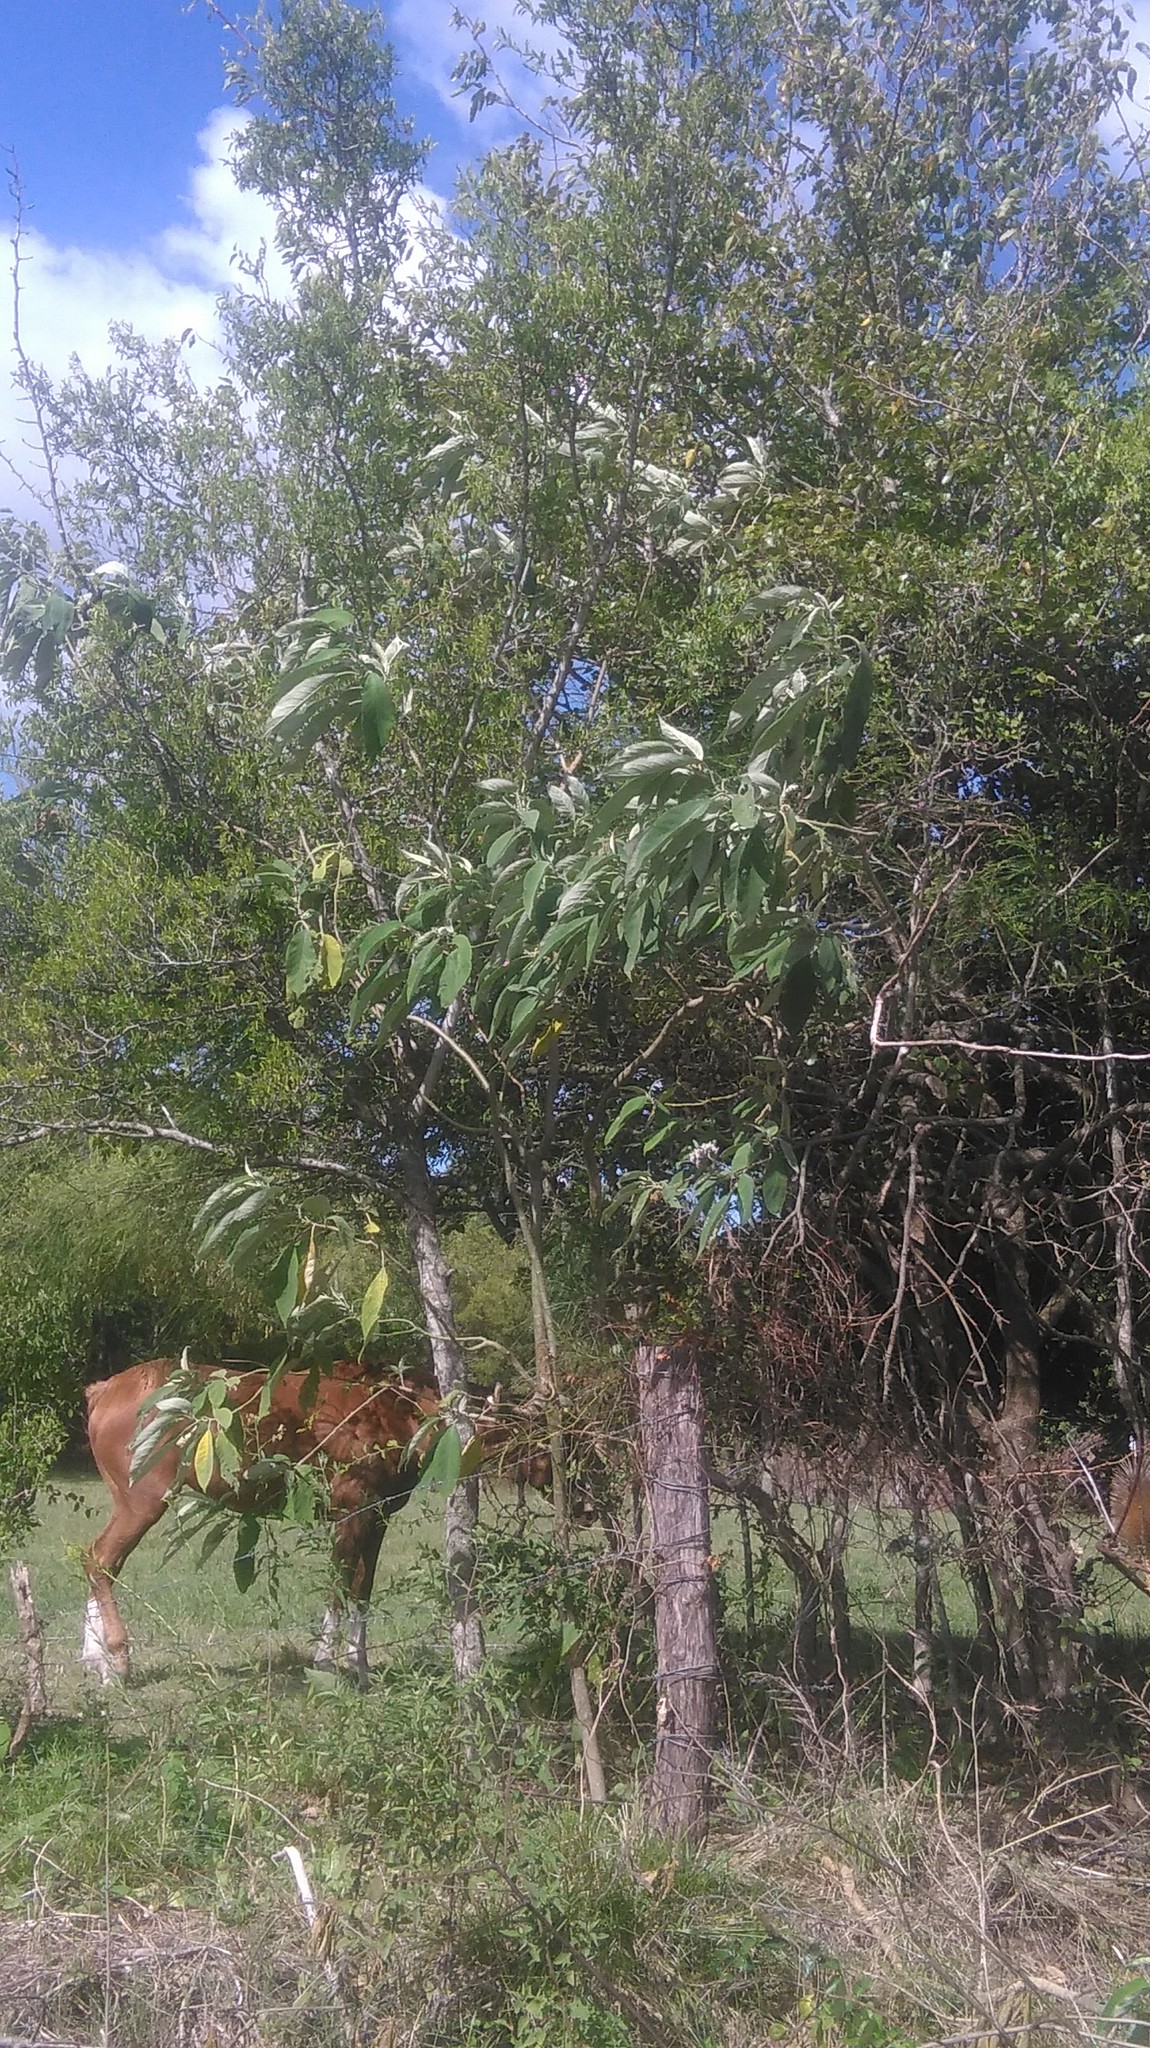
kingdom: Plantae
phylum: Tracheophyta
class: Magnoliopsida
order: Solanales
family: Solanaceae
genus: Solanum
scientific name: Solanum granulosoleprosum
